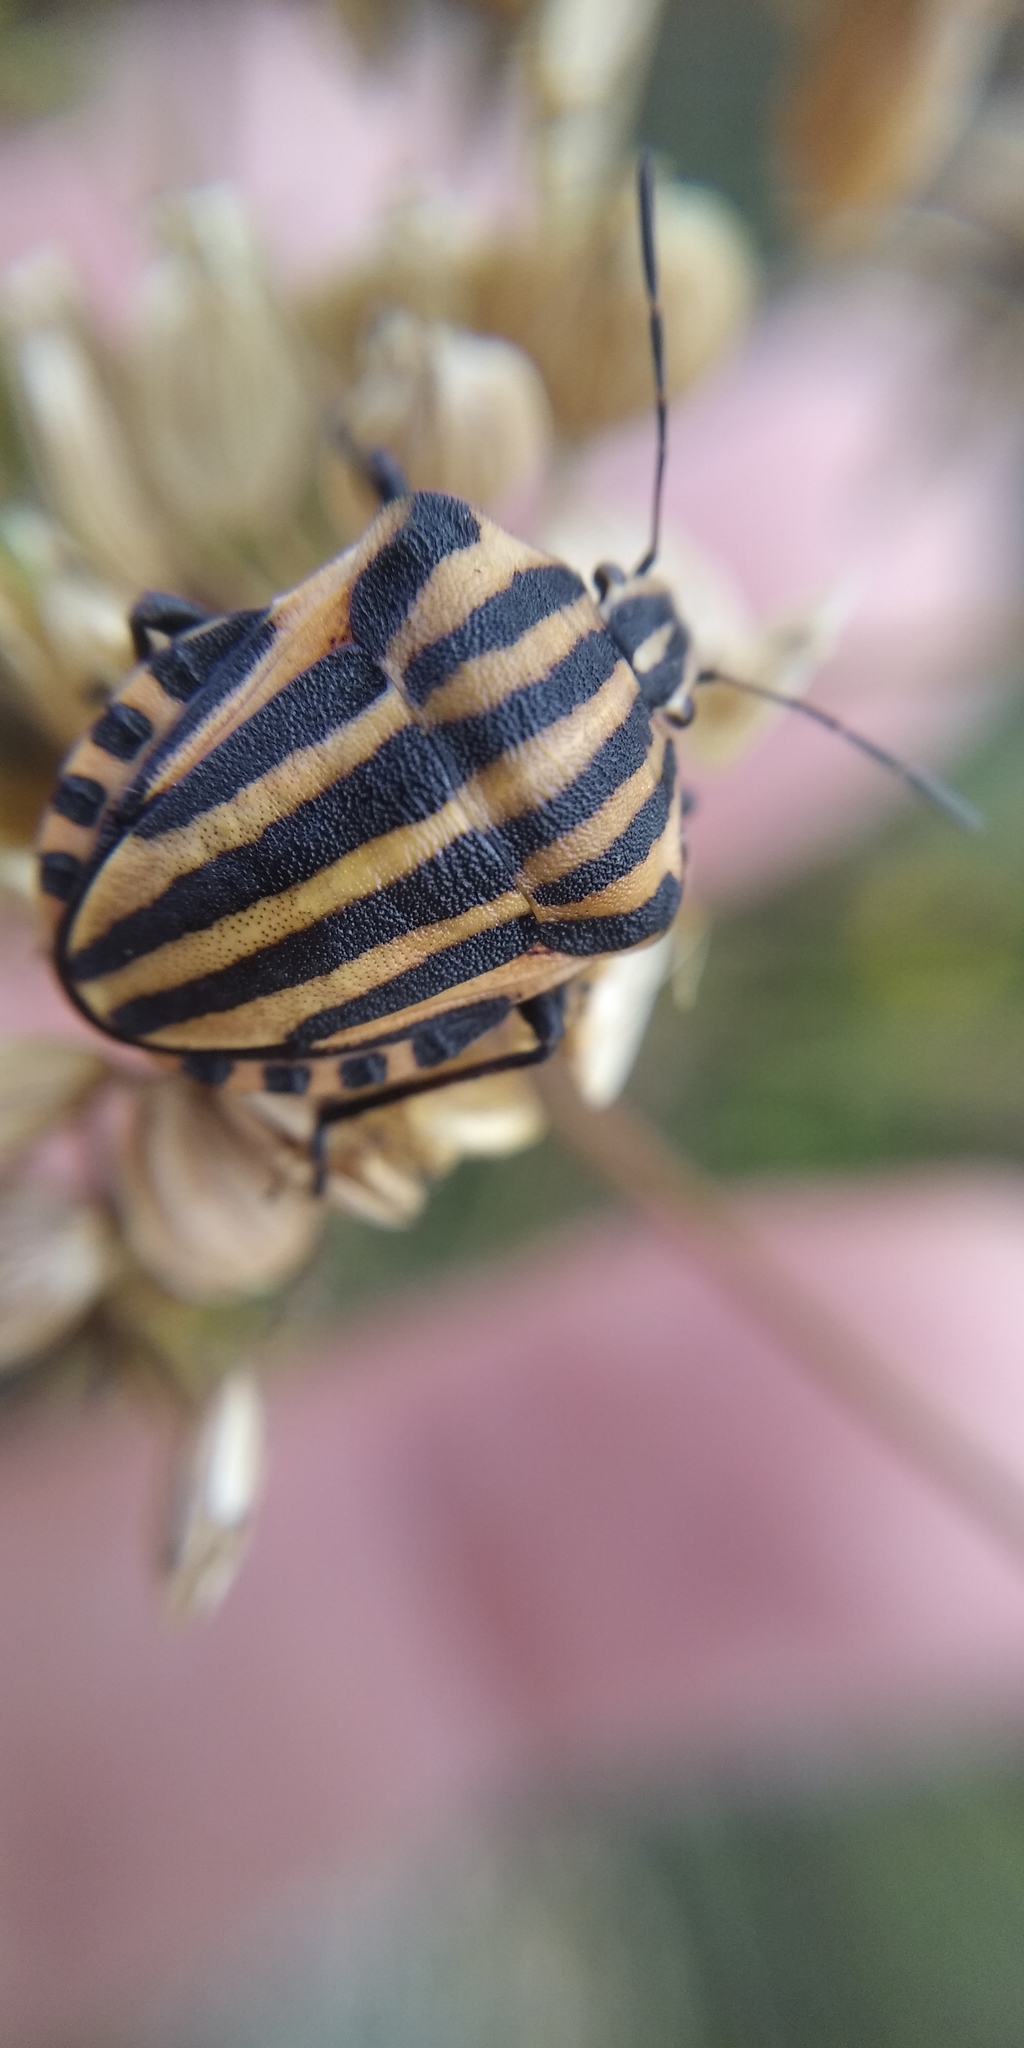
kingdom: Animalia
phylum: Arthropoda
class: Insecta
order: Hemiptera
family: Pentatomidae
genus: Graphosoma
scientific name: Graphosoma italicum
